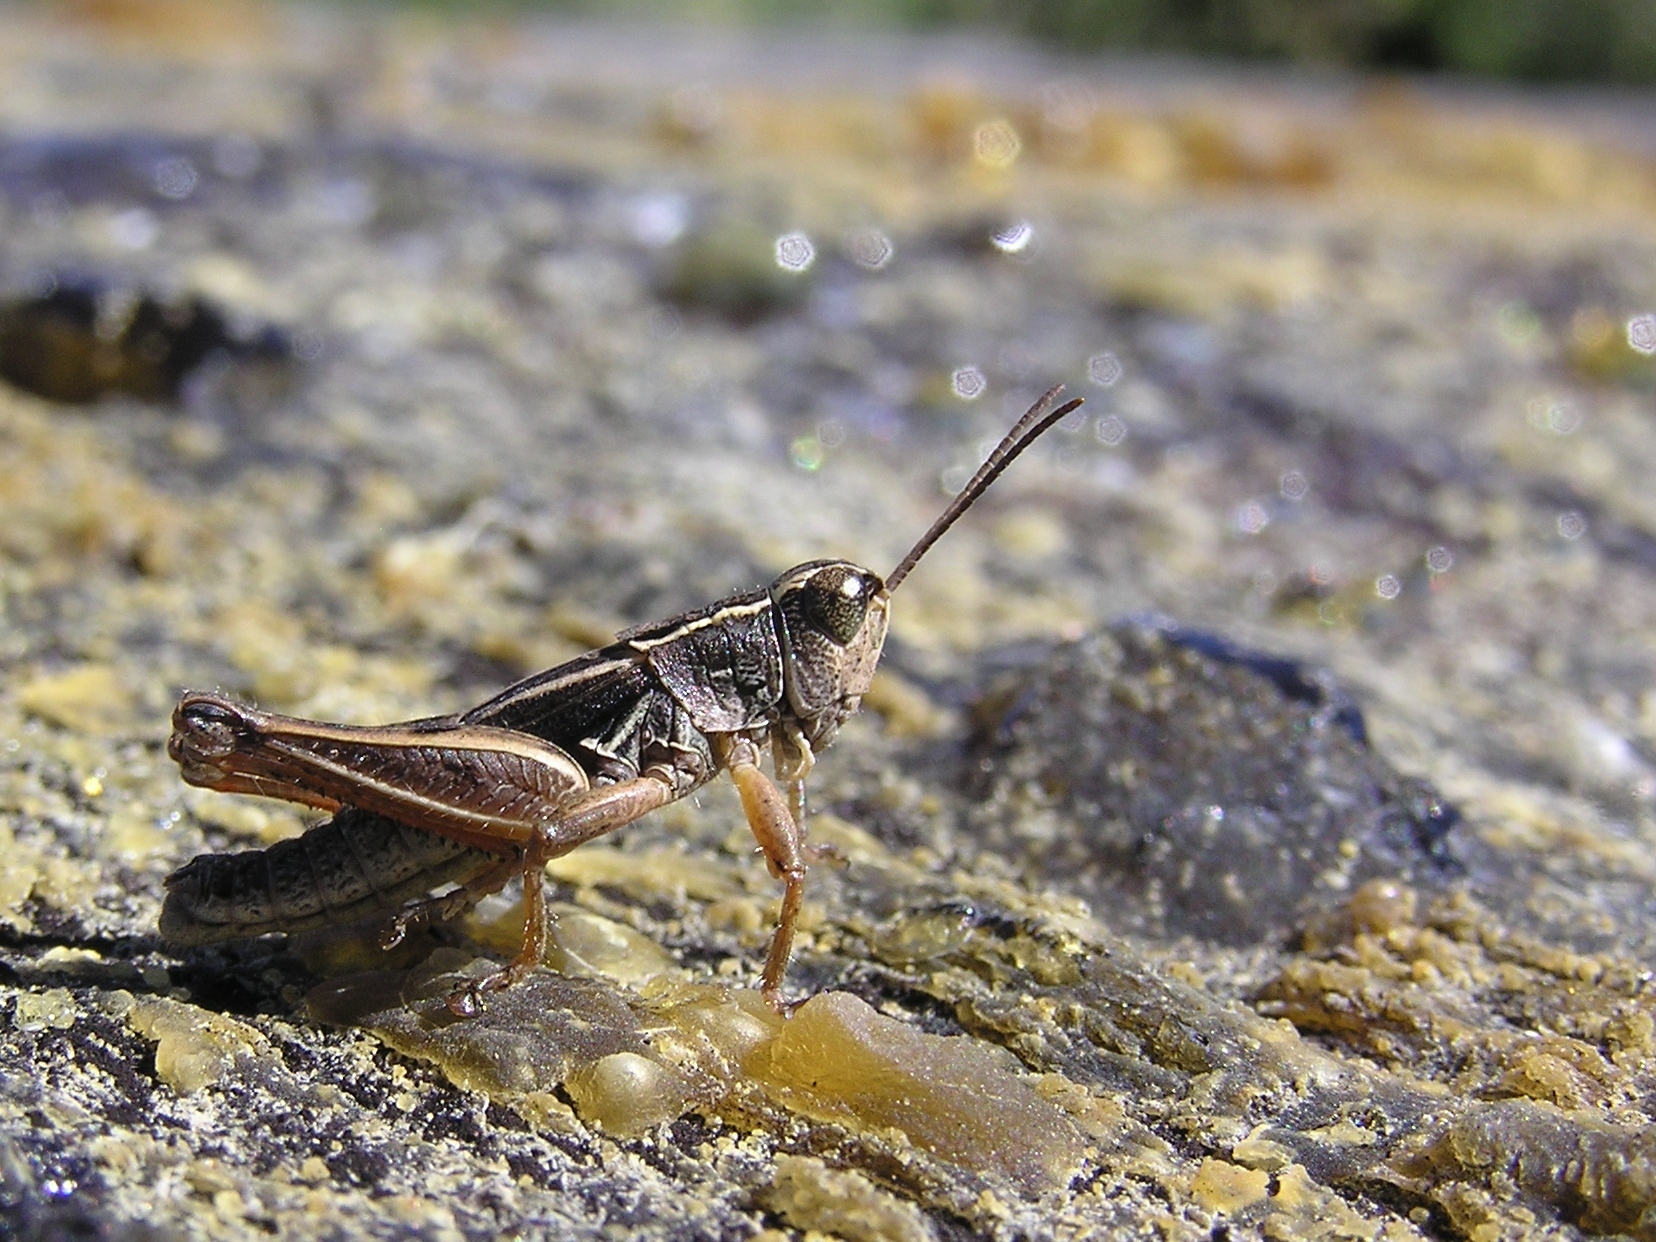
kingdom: Animalia
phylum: Arthropoda
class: Insecta
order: Orthoptera
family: Acrididae
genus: Phaulacridium
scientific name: Phaulacridium marginale
